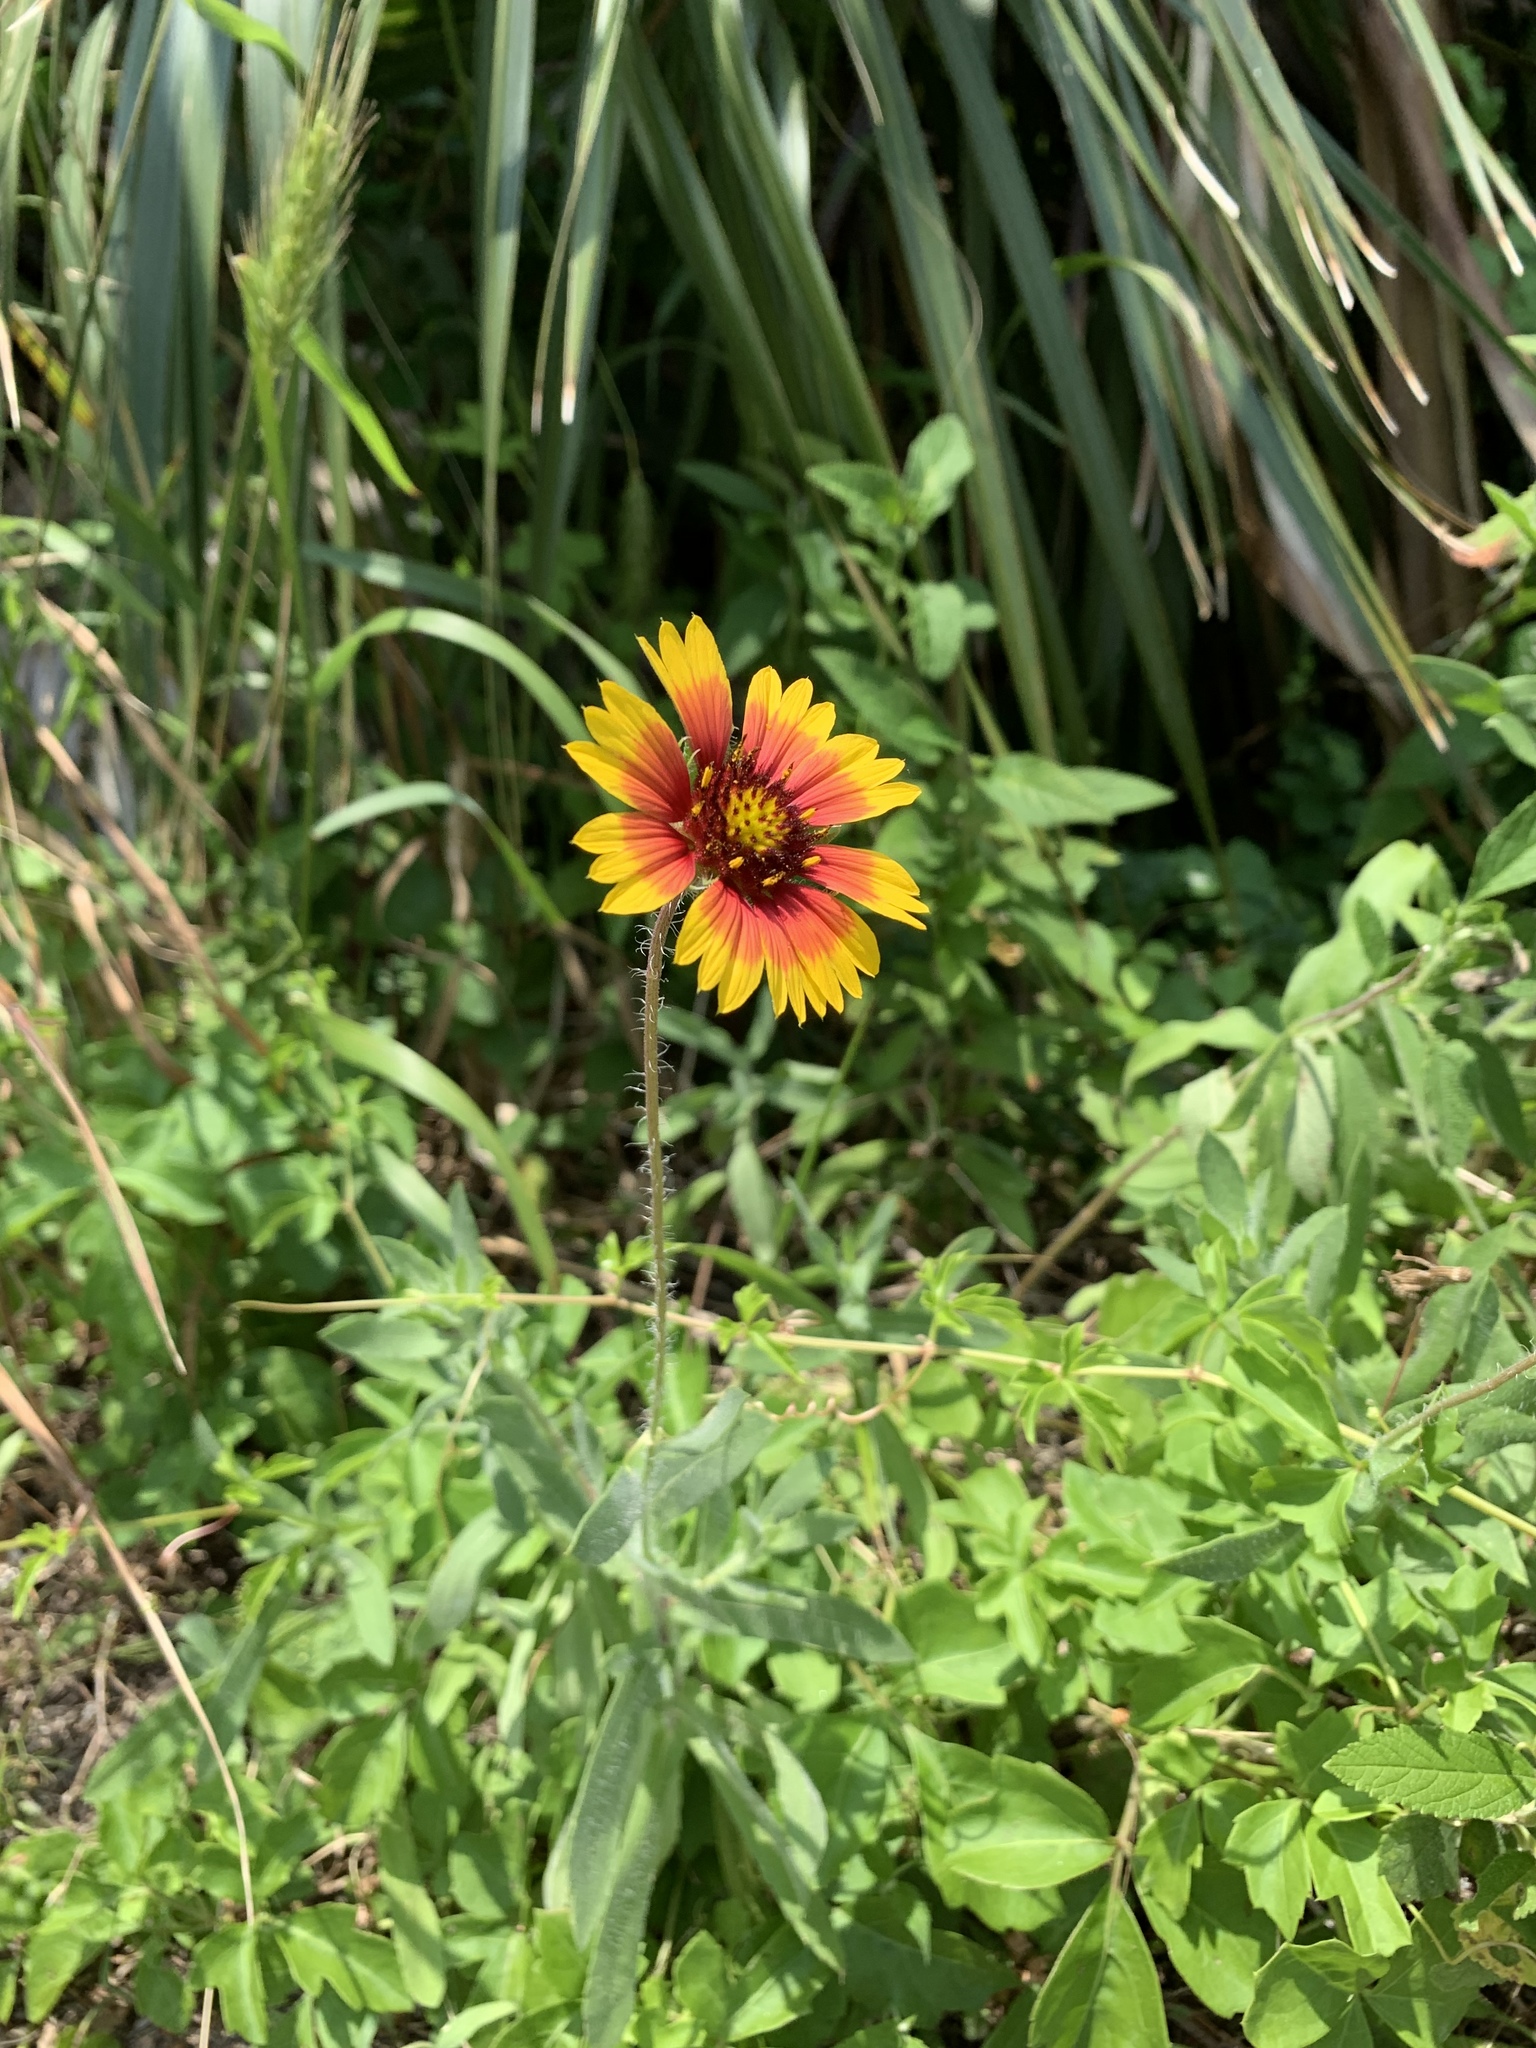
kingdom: Plantae
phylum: Tracheophyta
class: Magnoliopsida
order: Asterales
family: Asteraceae
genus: Gaillardia
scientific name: Gaillardia pulchella
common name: Firewheel
